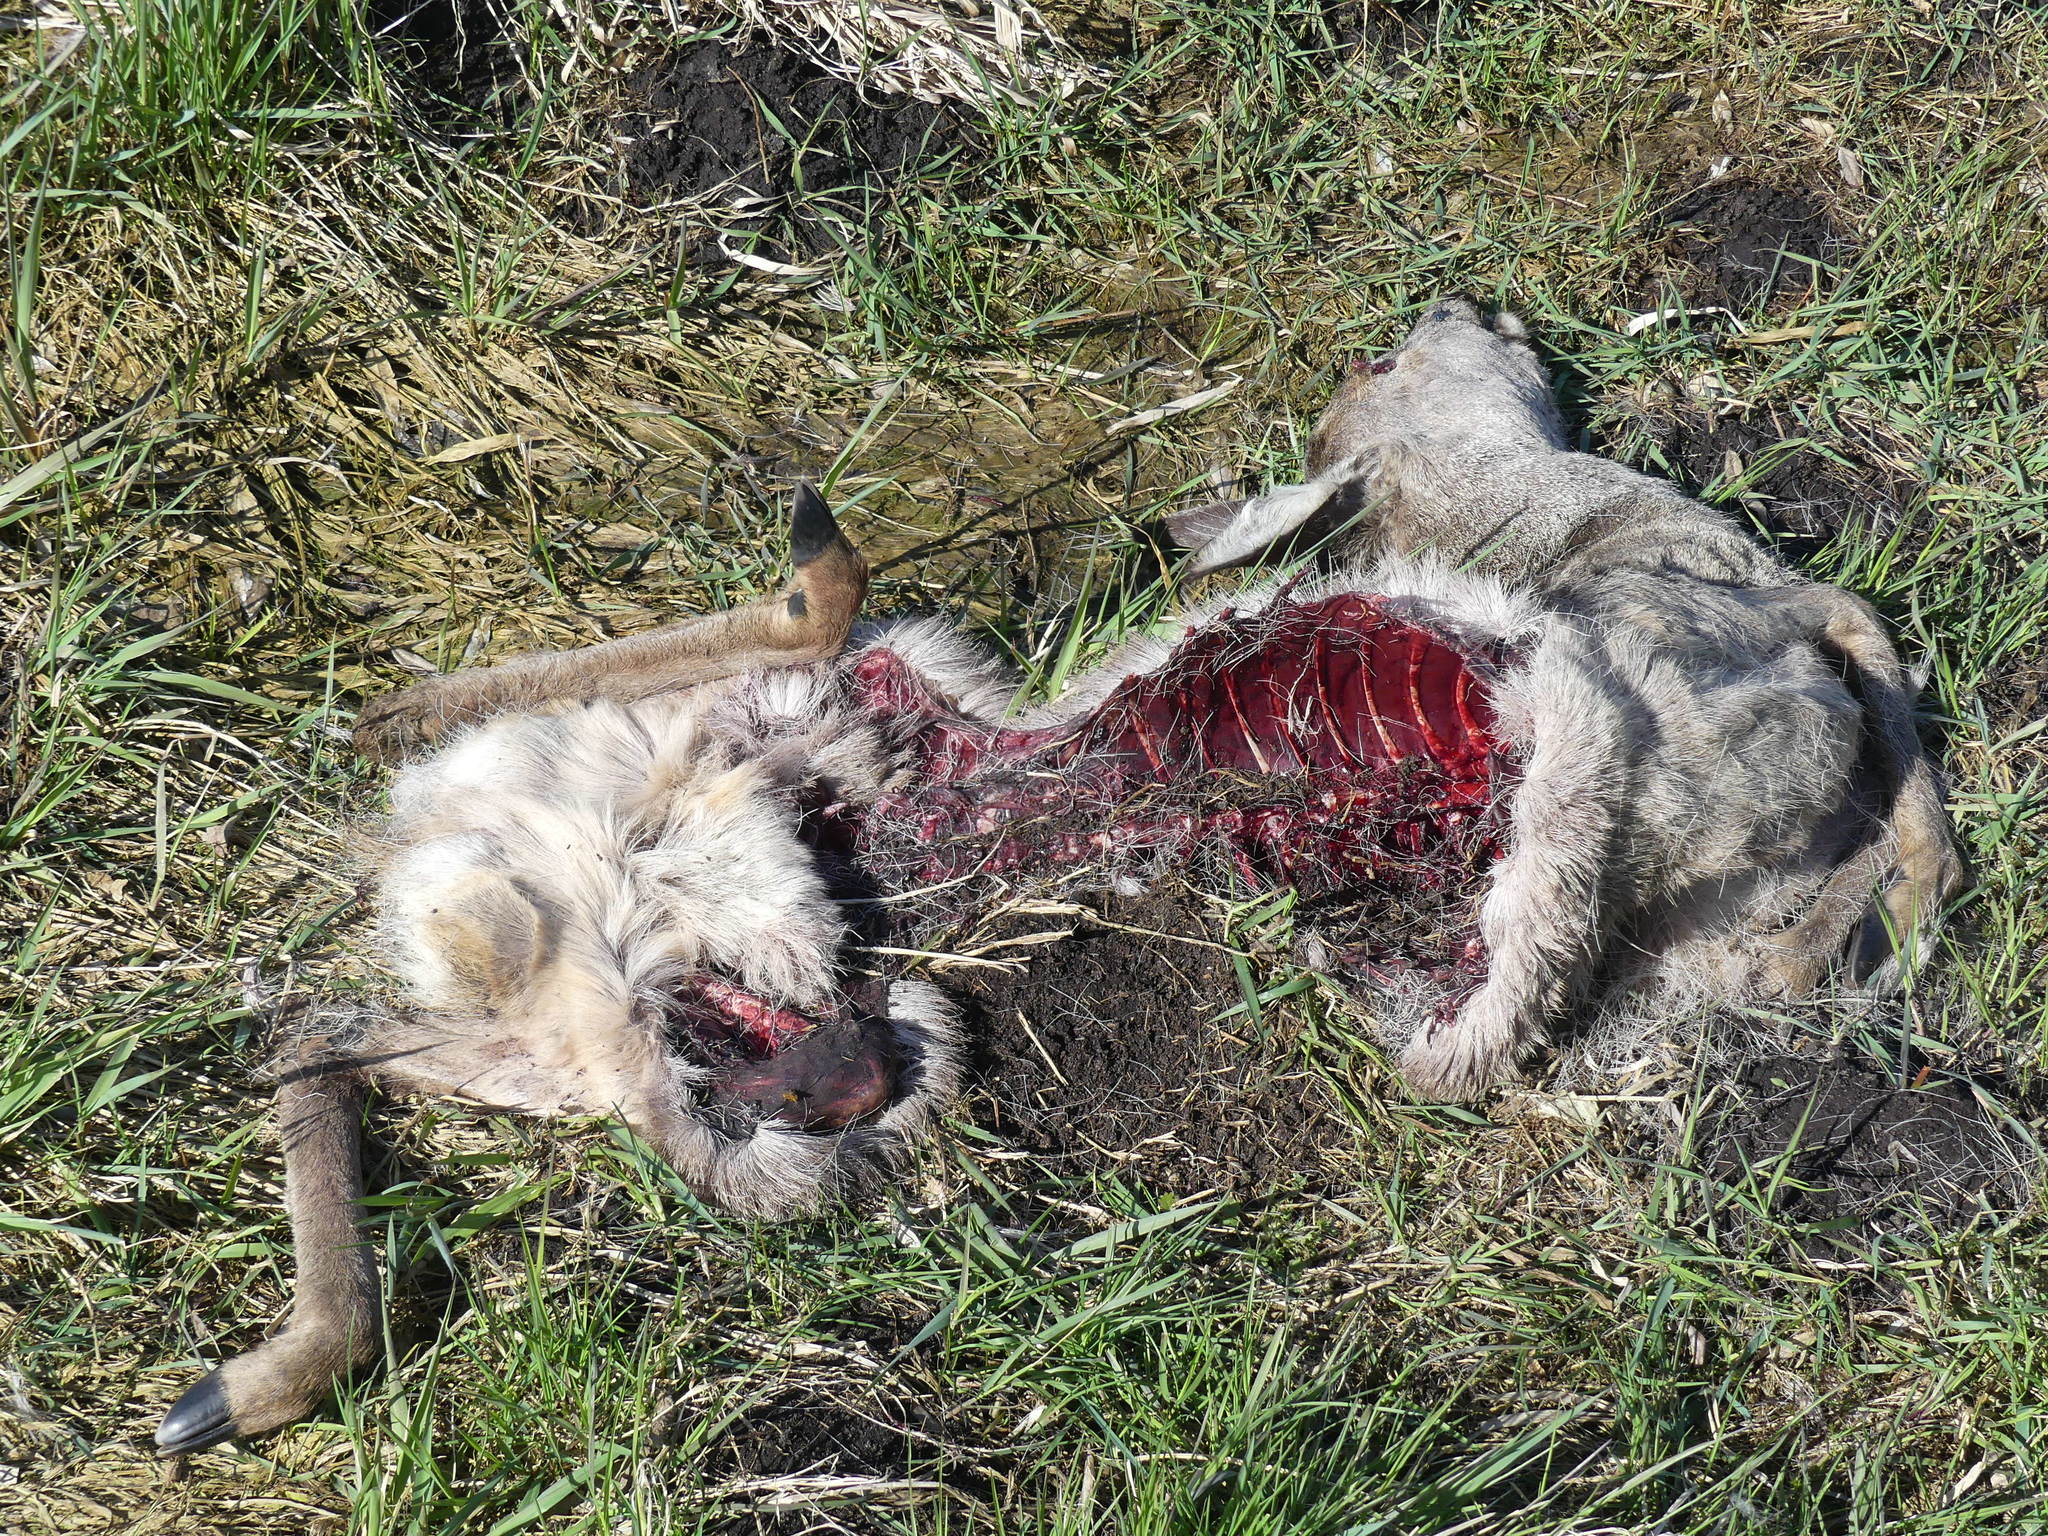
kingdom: Animalia
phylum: Chordata
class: Mammalia
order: Artiodactyla
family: Cervidae
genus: Capreolus
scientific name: Capreolus capreolus
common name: Western roe deer
